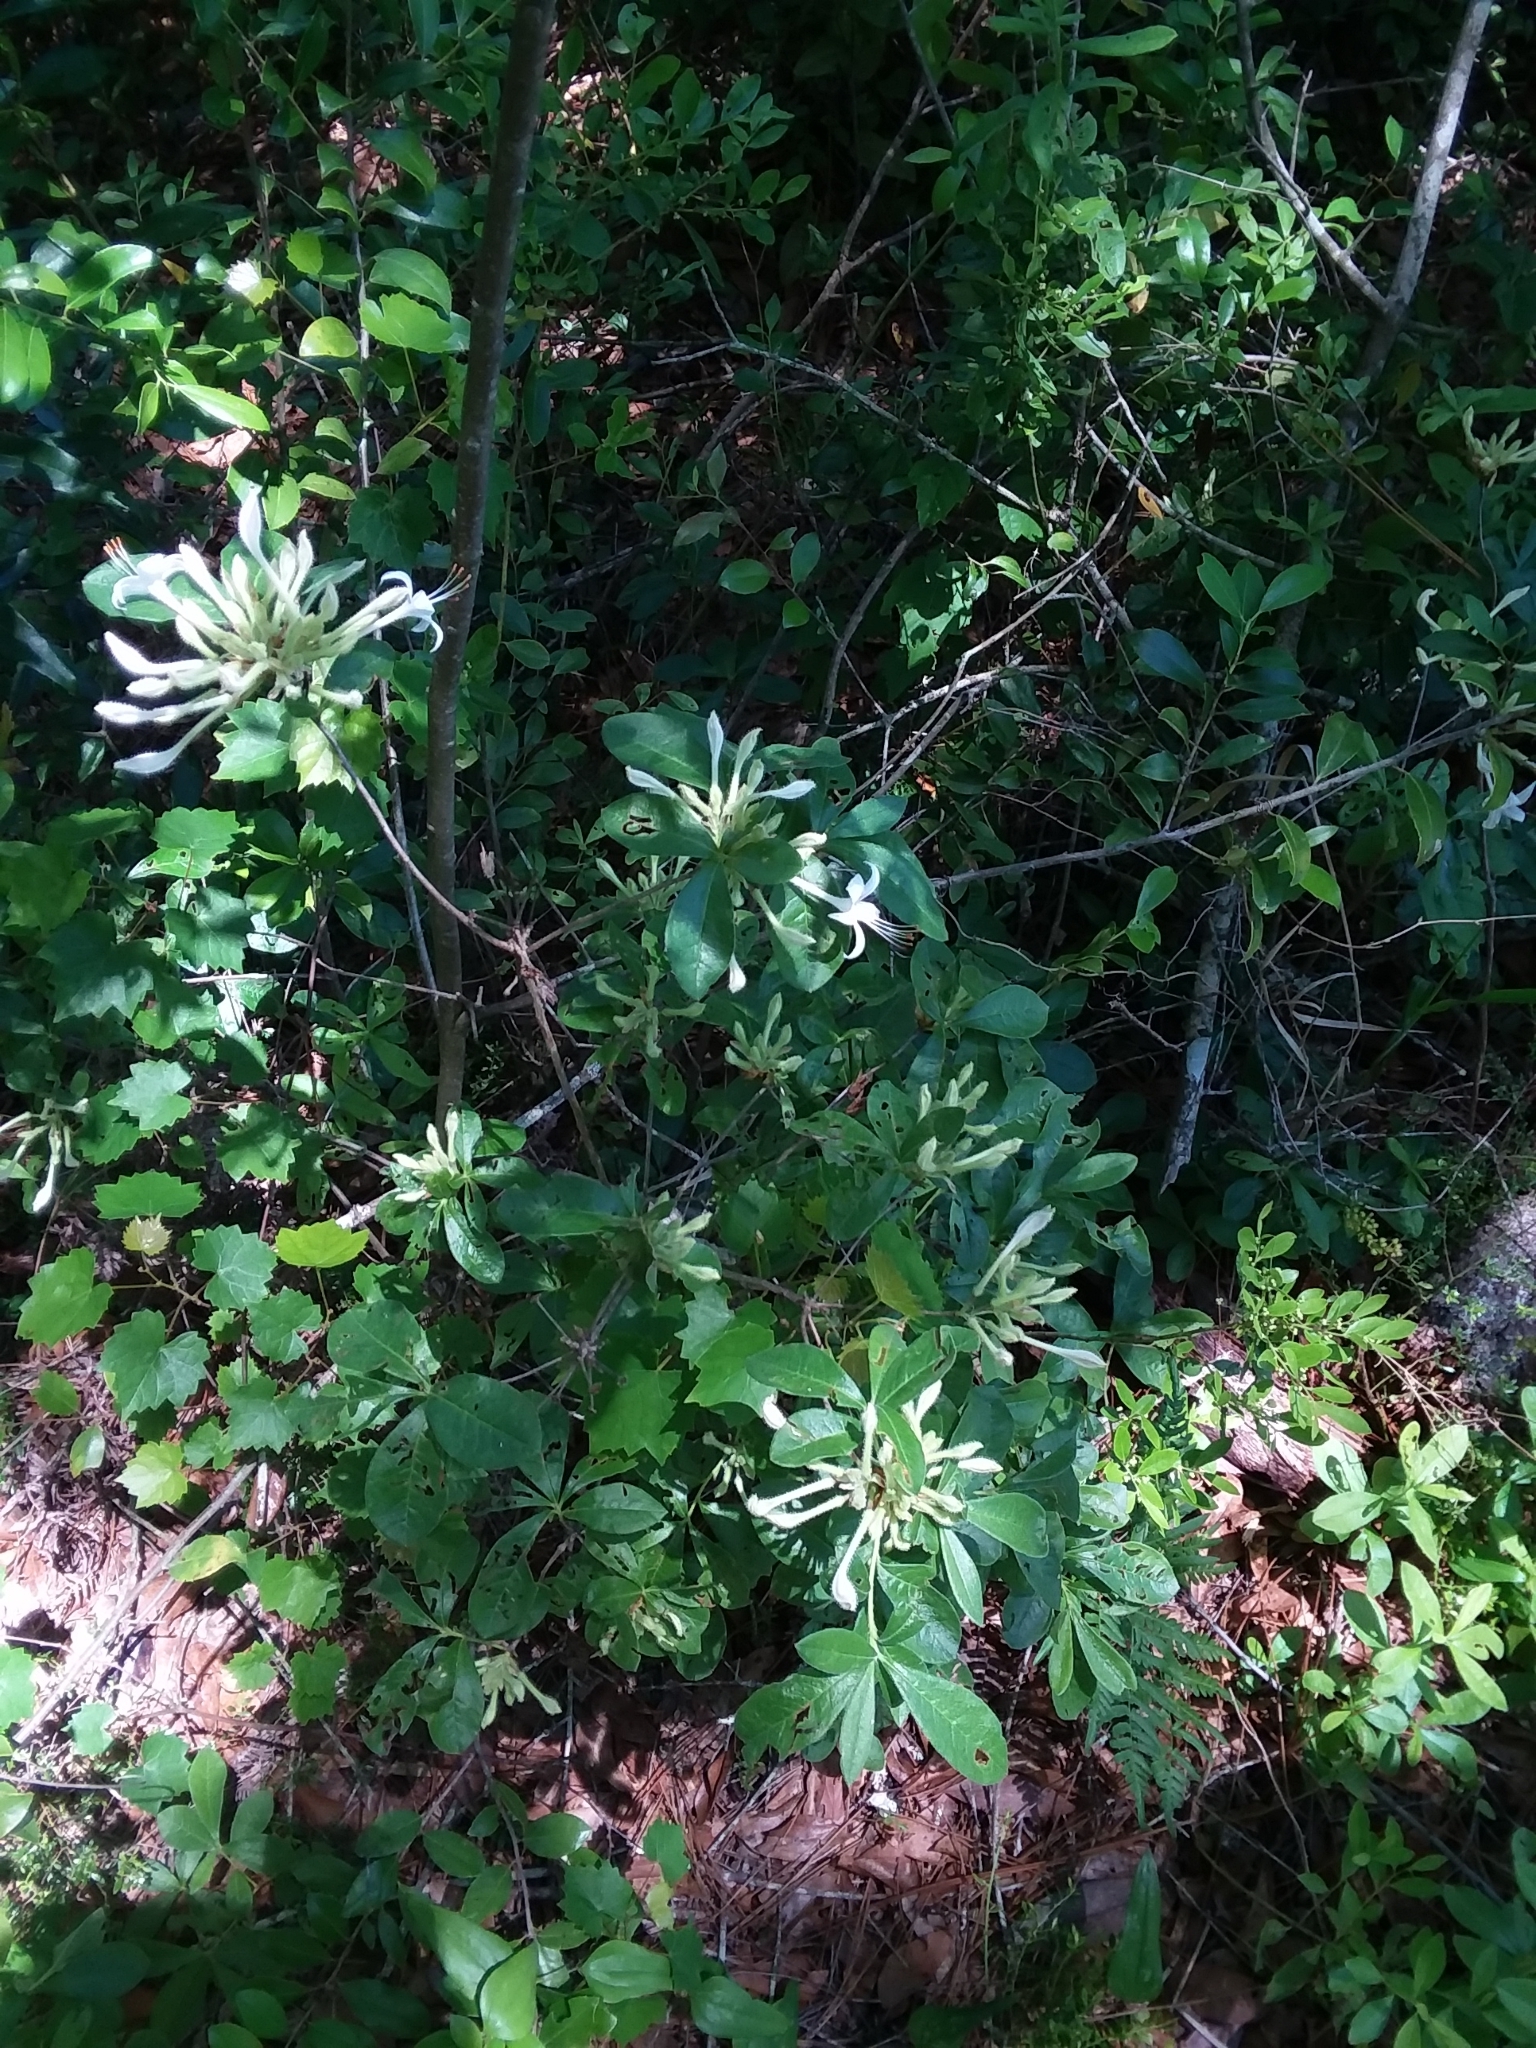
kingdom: Plantae
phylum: Tracheophyta
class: Magnoliopsida
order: Ericales
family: Ericaceae
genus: Rhododendron
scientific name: Rhododendron serrulatum
